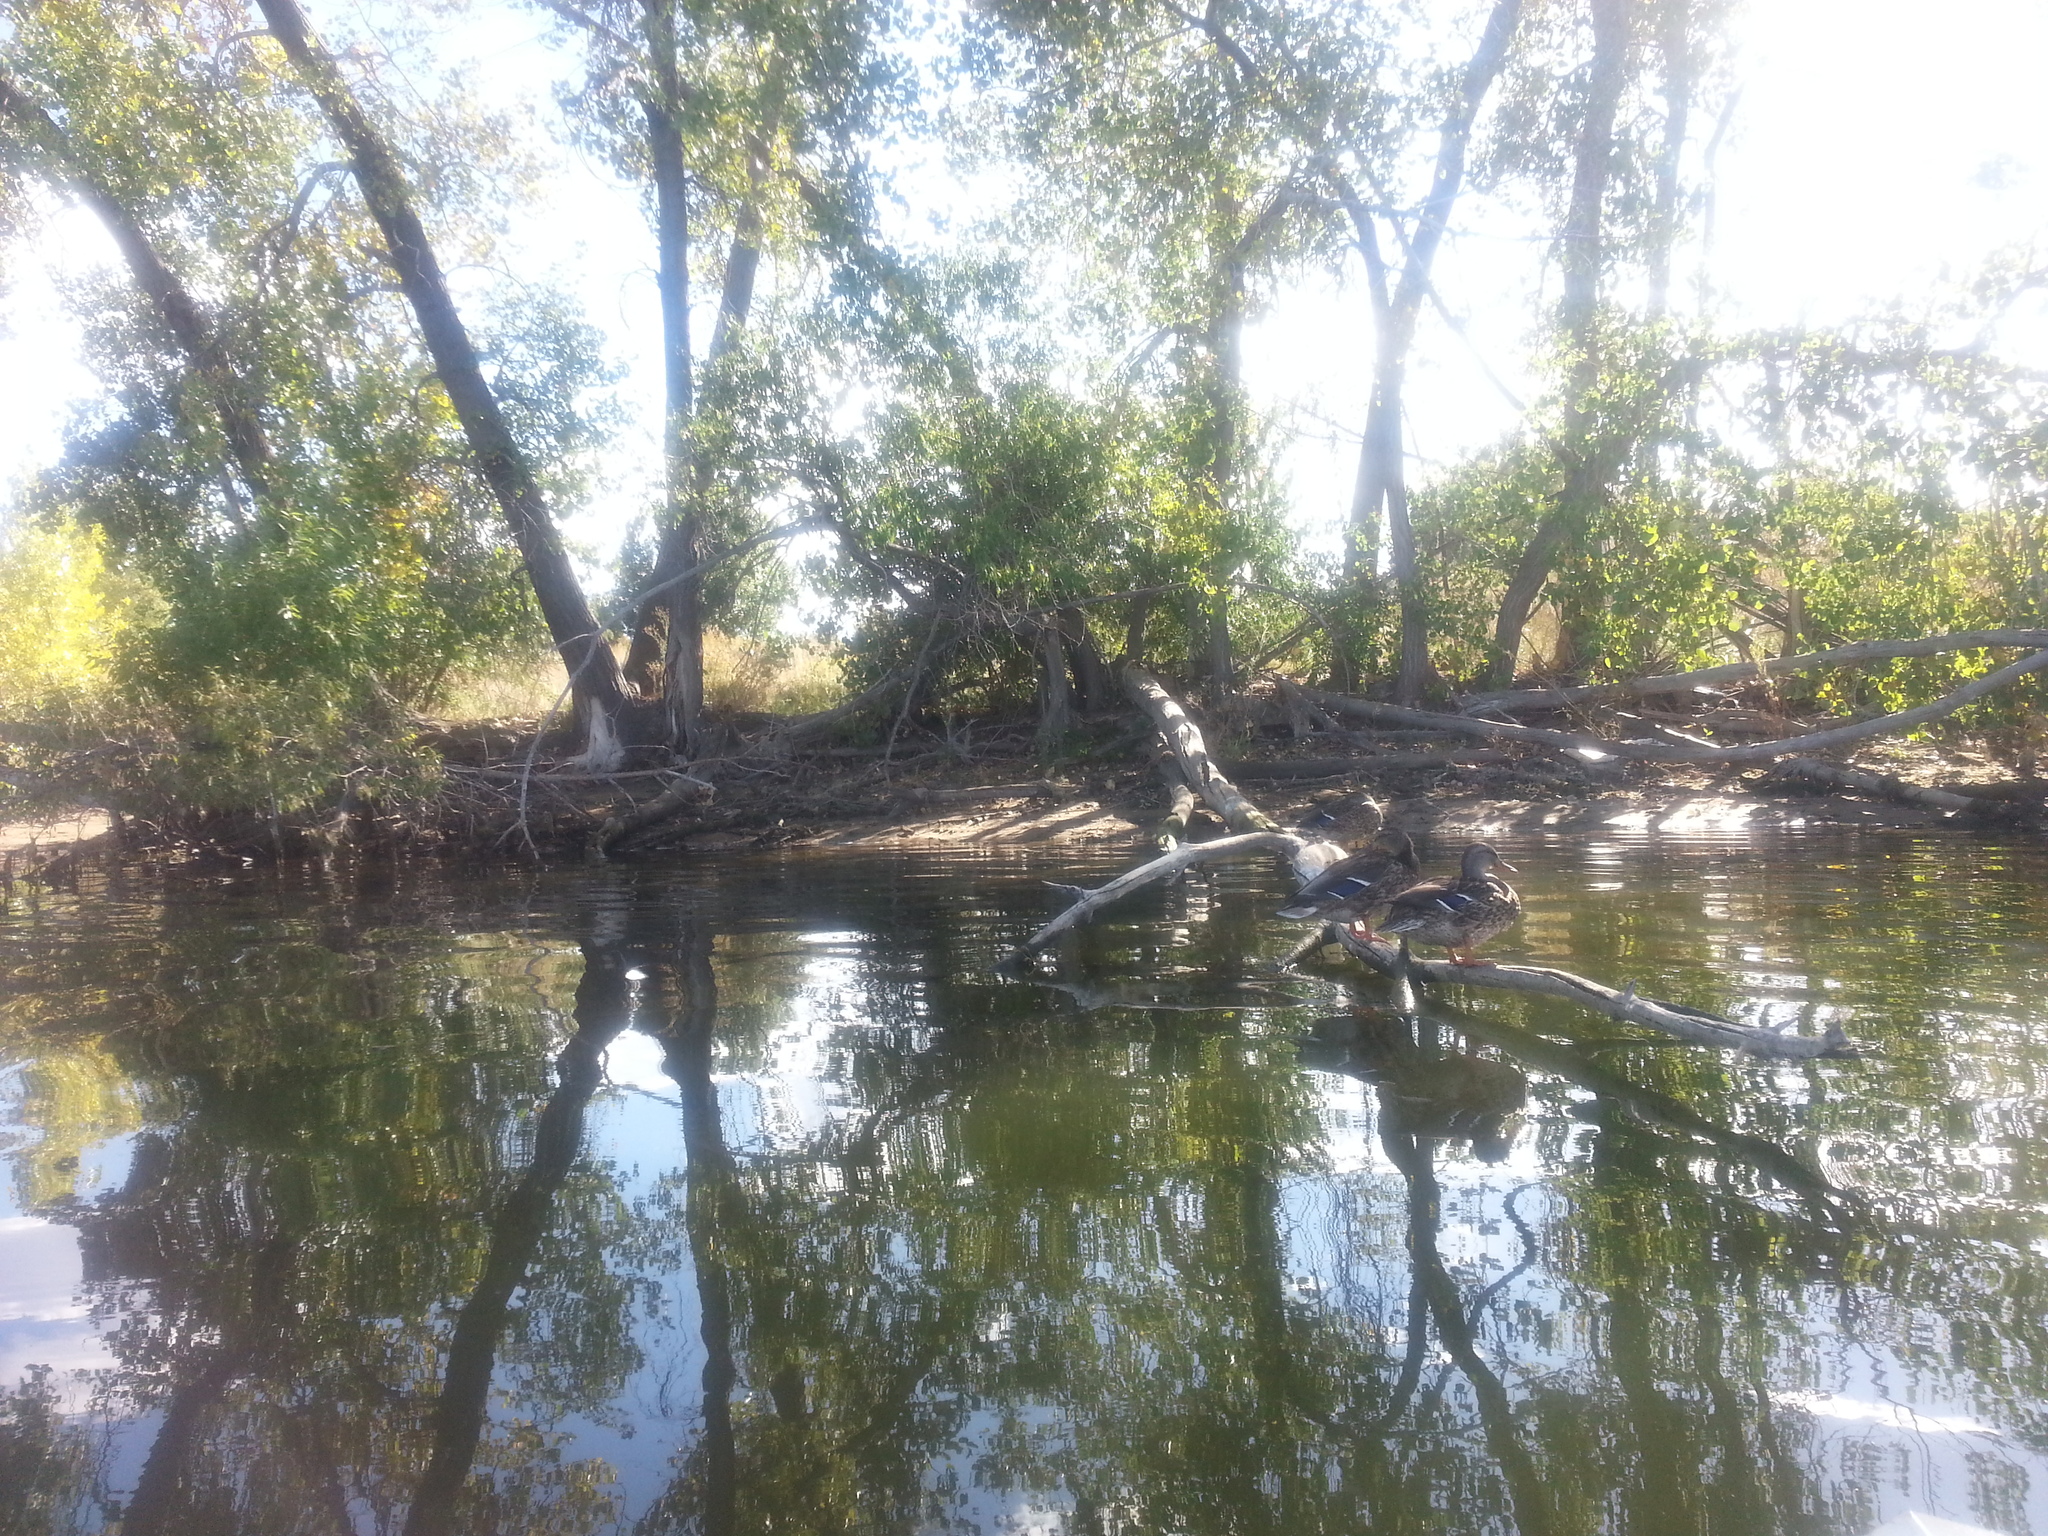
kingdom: Animalia
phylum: Chordata
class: Aves
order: Anseriformes
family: Anatidae
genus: Anas
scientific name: Anas platyrhynchos
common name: Mallard
